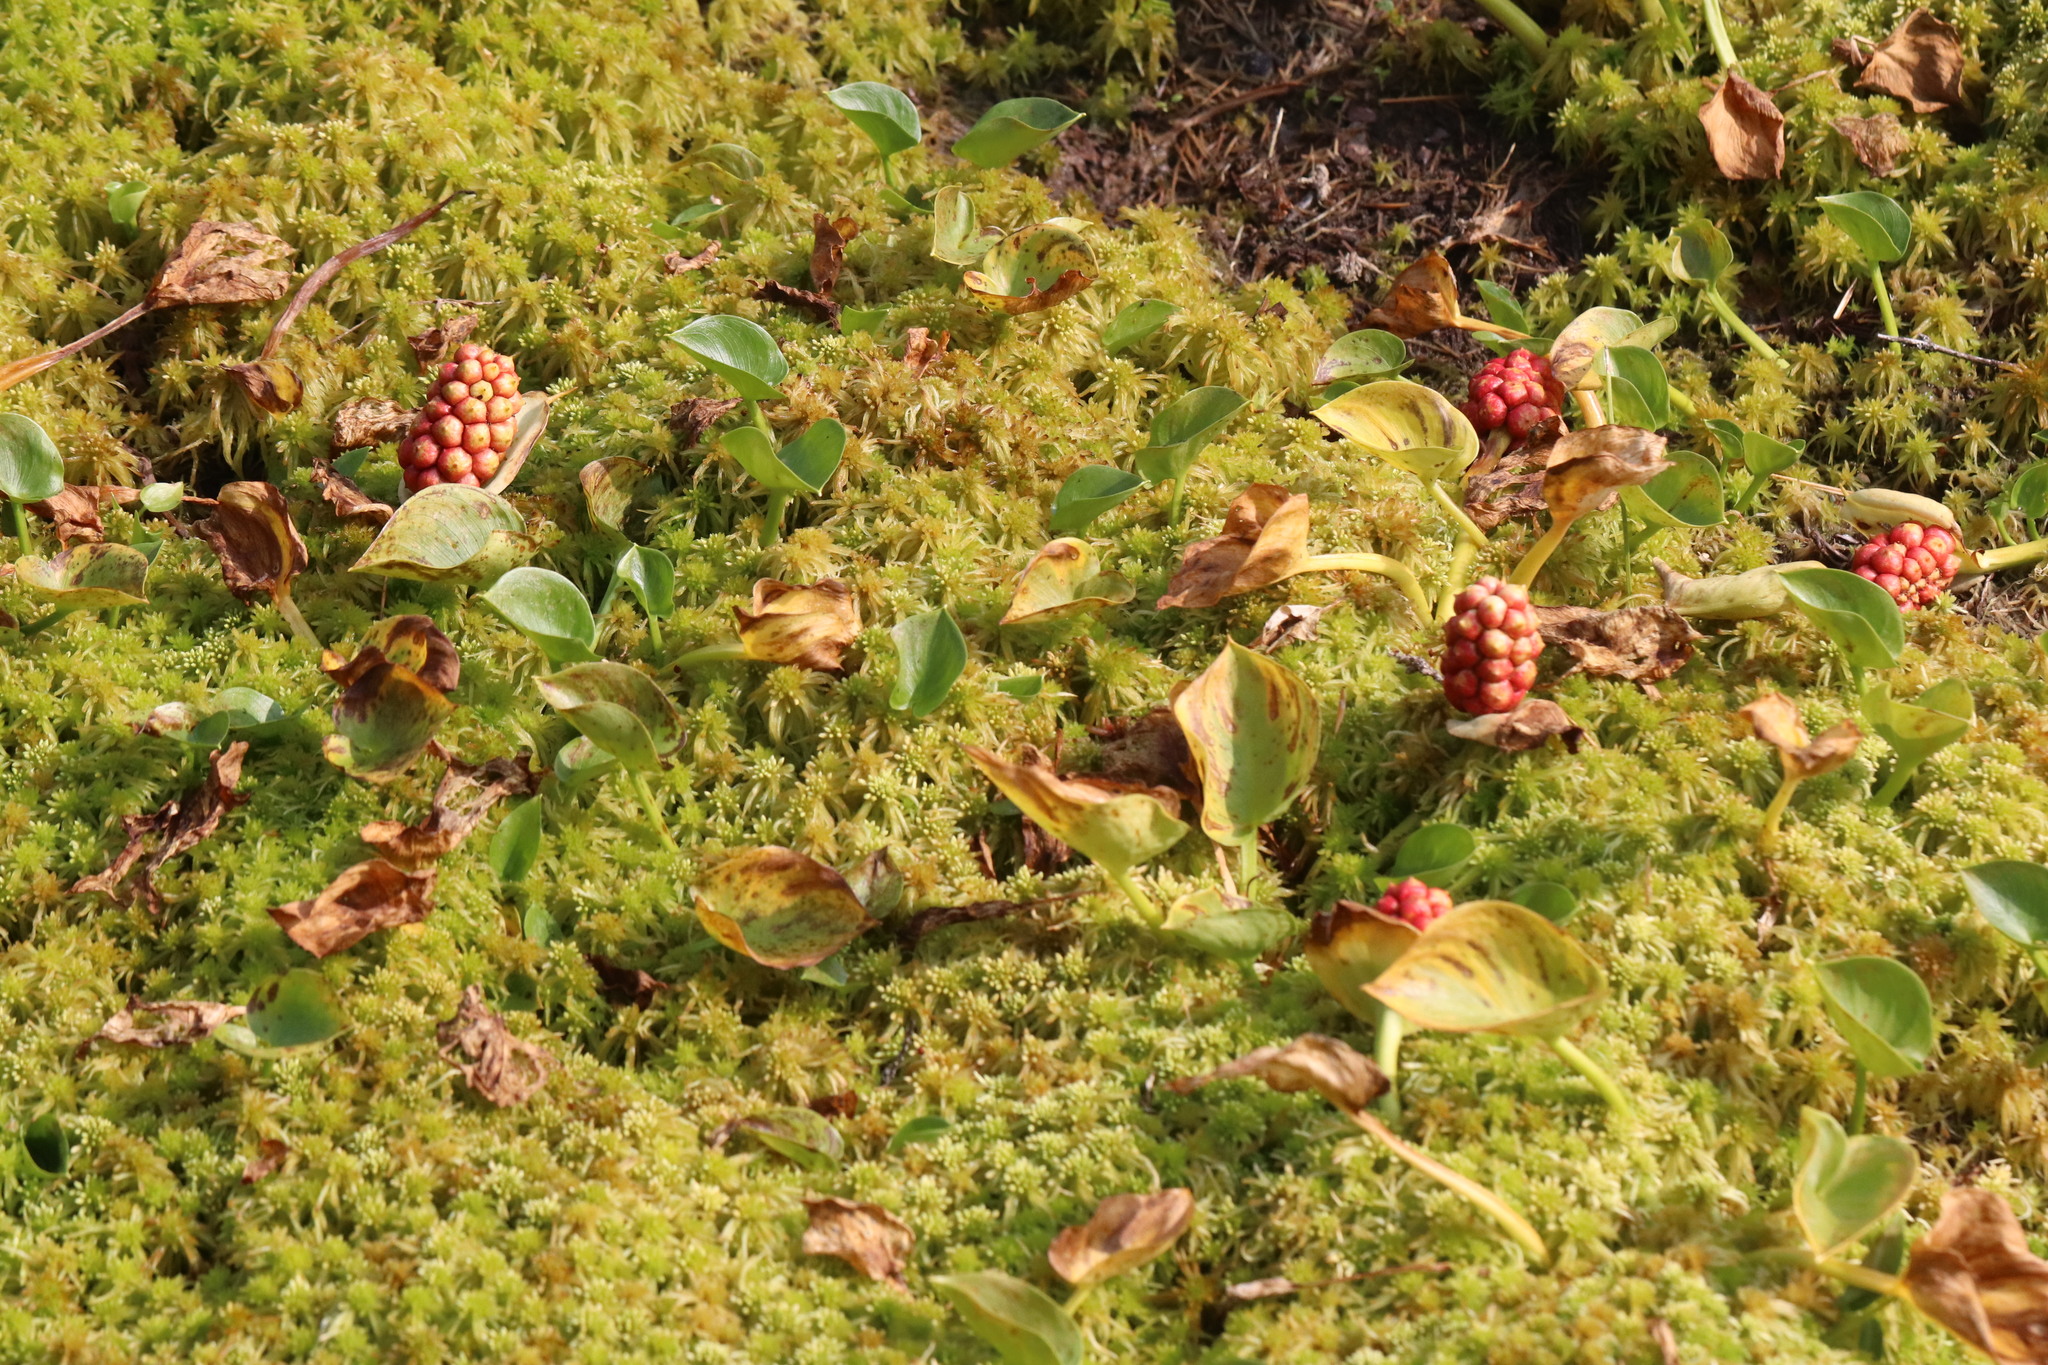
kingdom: Plantae
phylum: Tracheophyta
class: Liliopsida
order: Alismatales
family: Araceae
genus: Calla
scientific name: Calla palustris
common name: Bog arum
